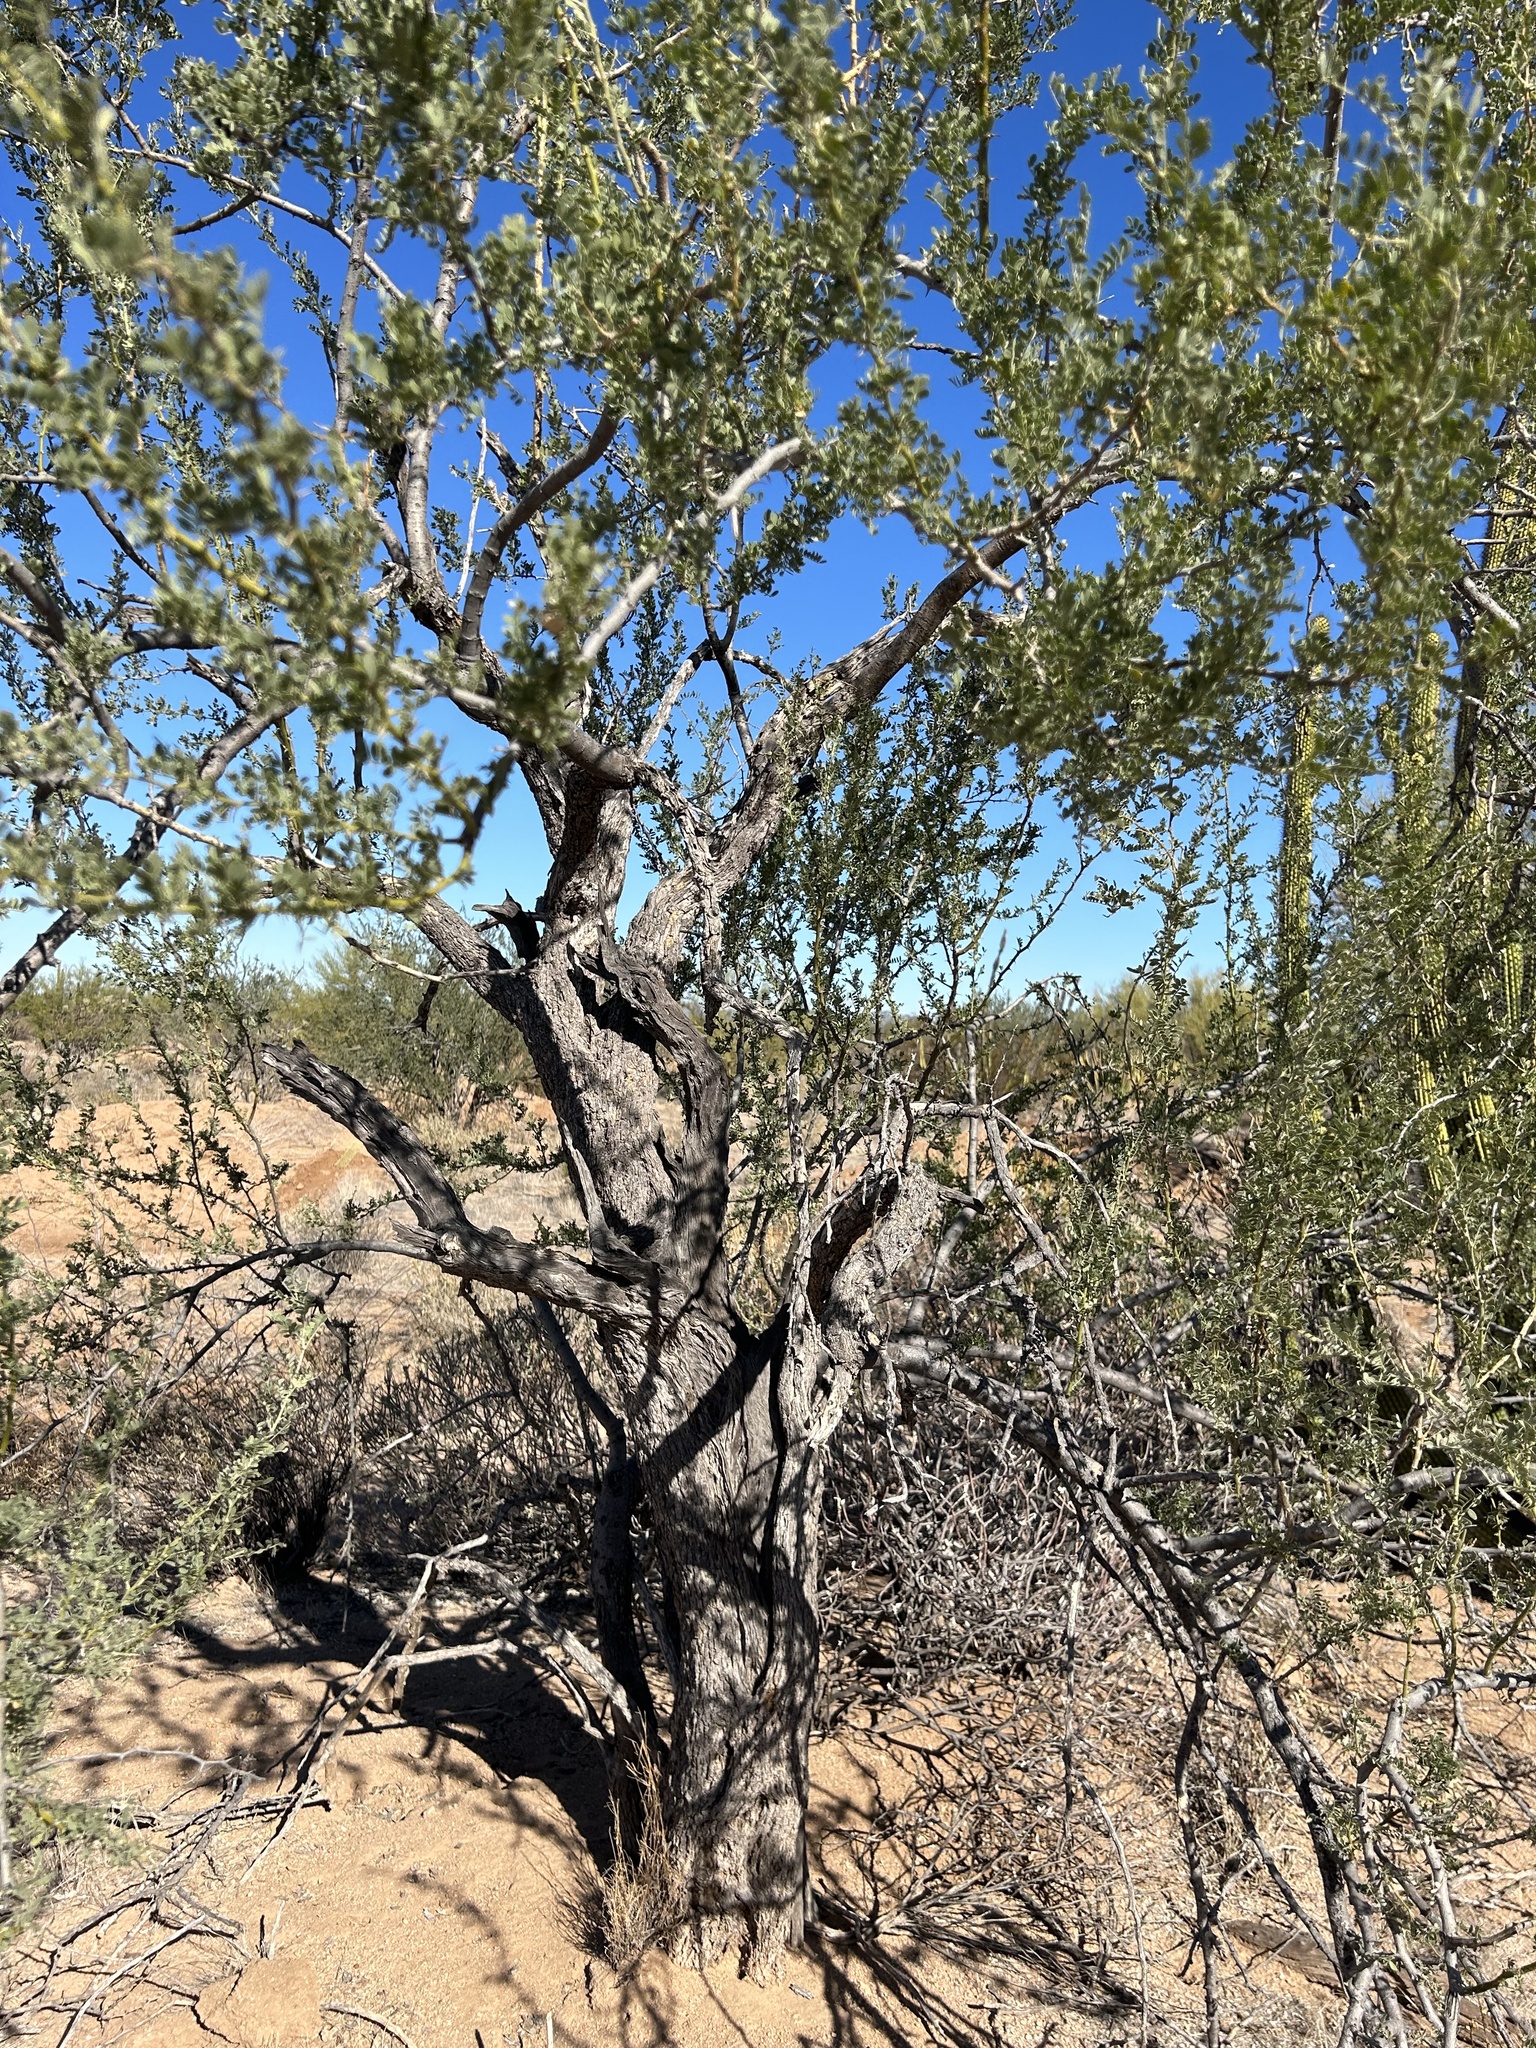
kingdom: Plantae
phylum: Tracheophyta
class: Magnoliopsida
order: Fabales
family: Fabaceae
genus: Olneya
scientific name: Olneya tesota
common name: Desert ironwood
